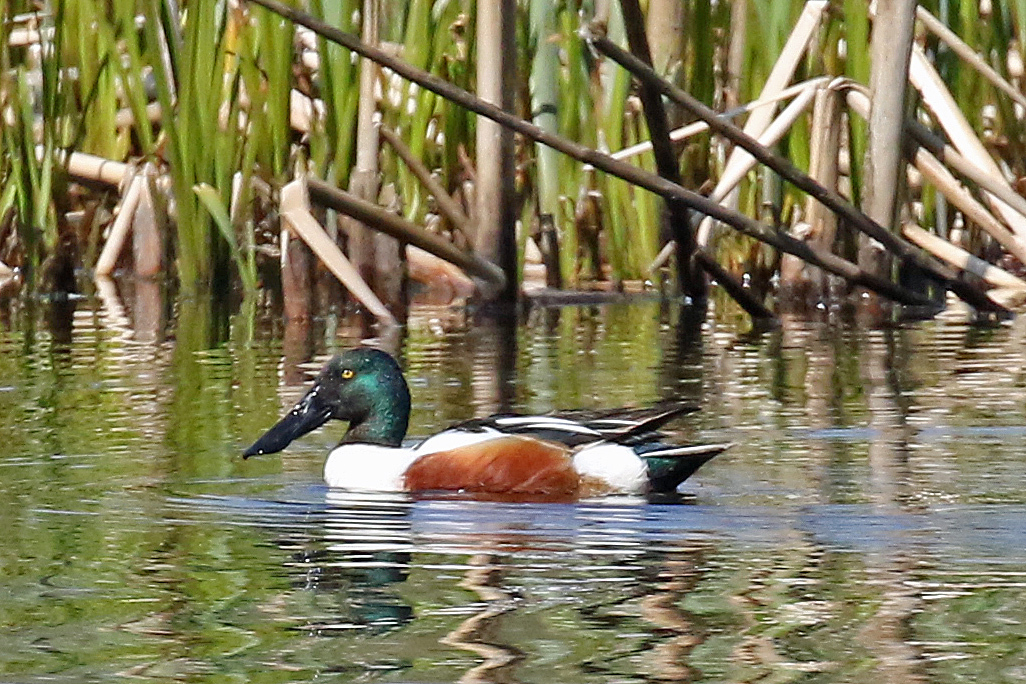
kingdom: Animalia
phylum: Chordata
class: Aves
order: Anseriformes
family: Anatidae
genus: Spatula
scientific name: Spatula clypeata
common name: Northern shoveler
